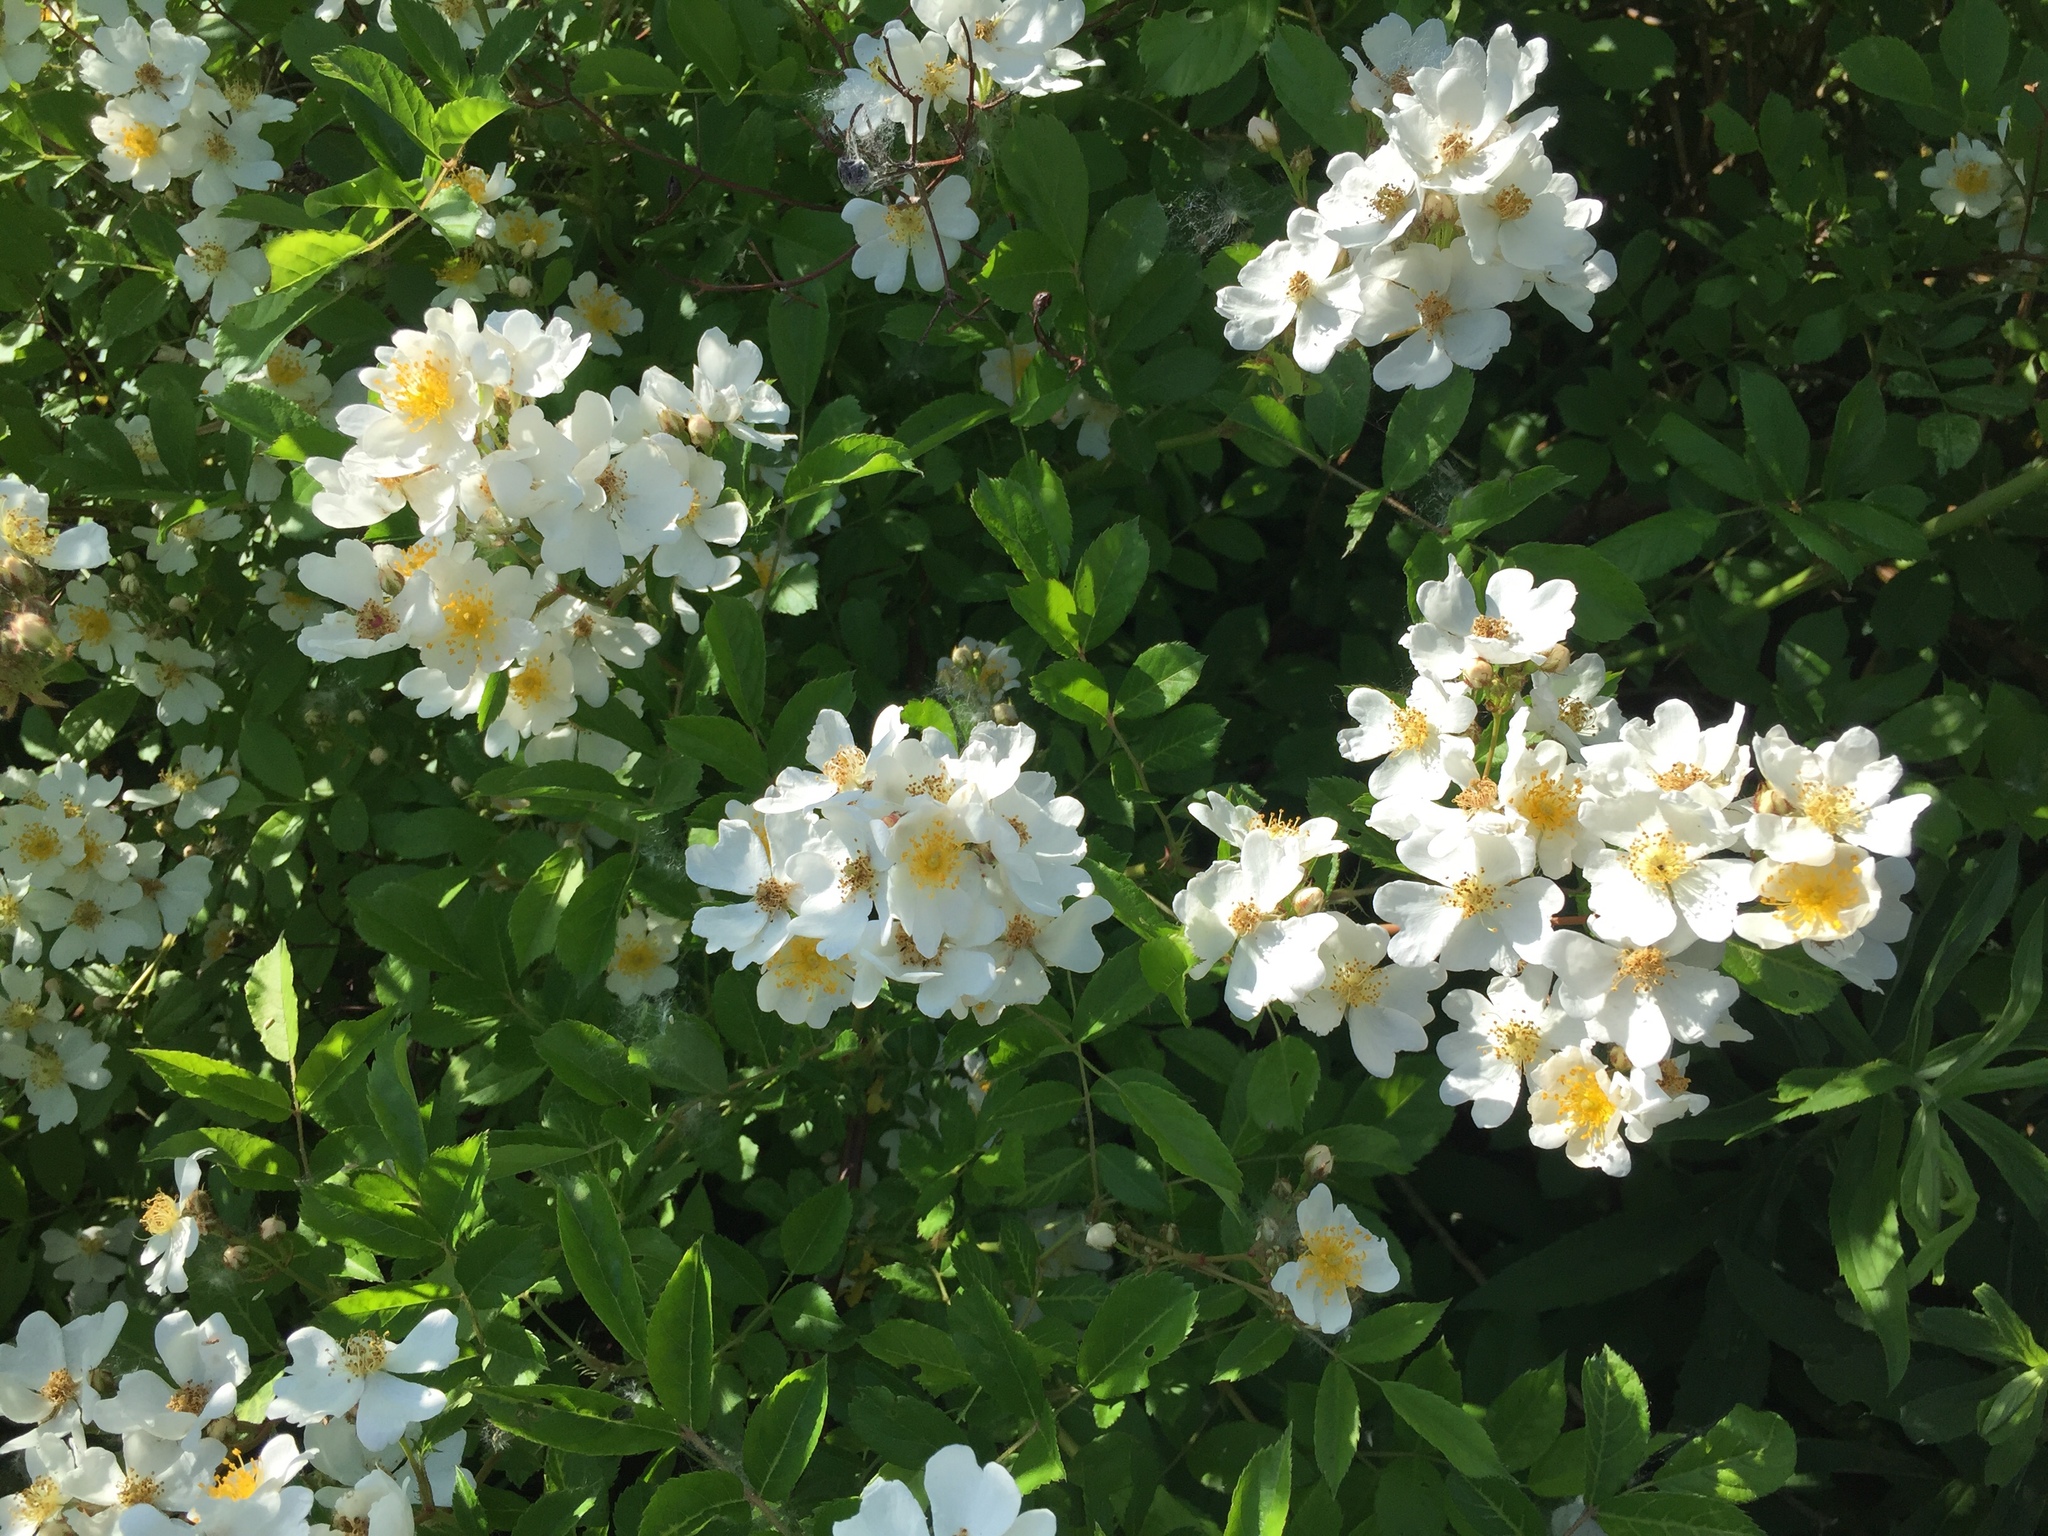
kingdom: Plantae
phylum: Tracheophyta
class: Magnoliopsida
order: Rosales
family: Rosaceae
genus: Rosa
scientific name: Rosa multiflora
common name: Multiflora rose
